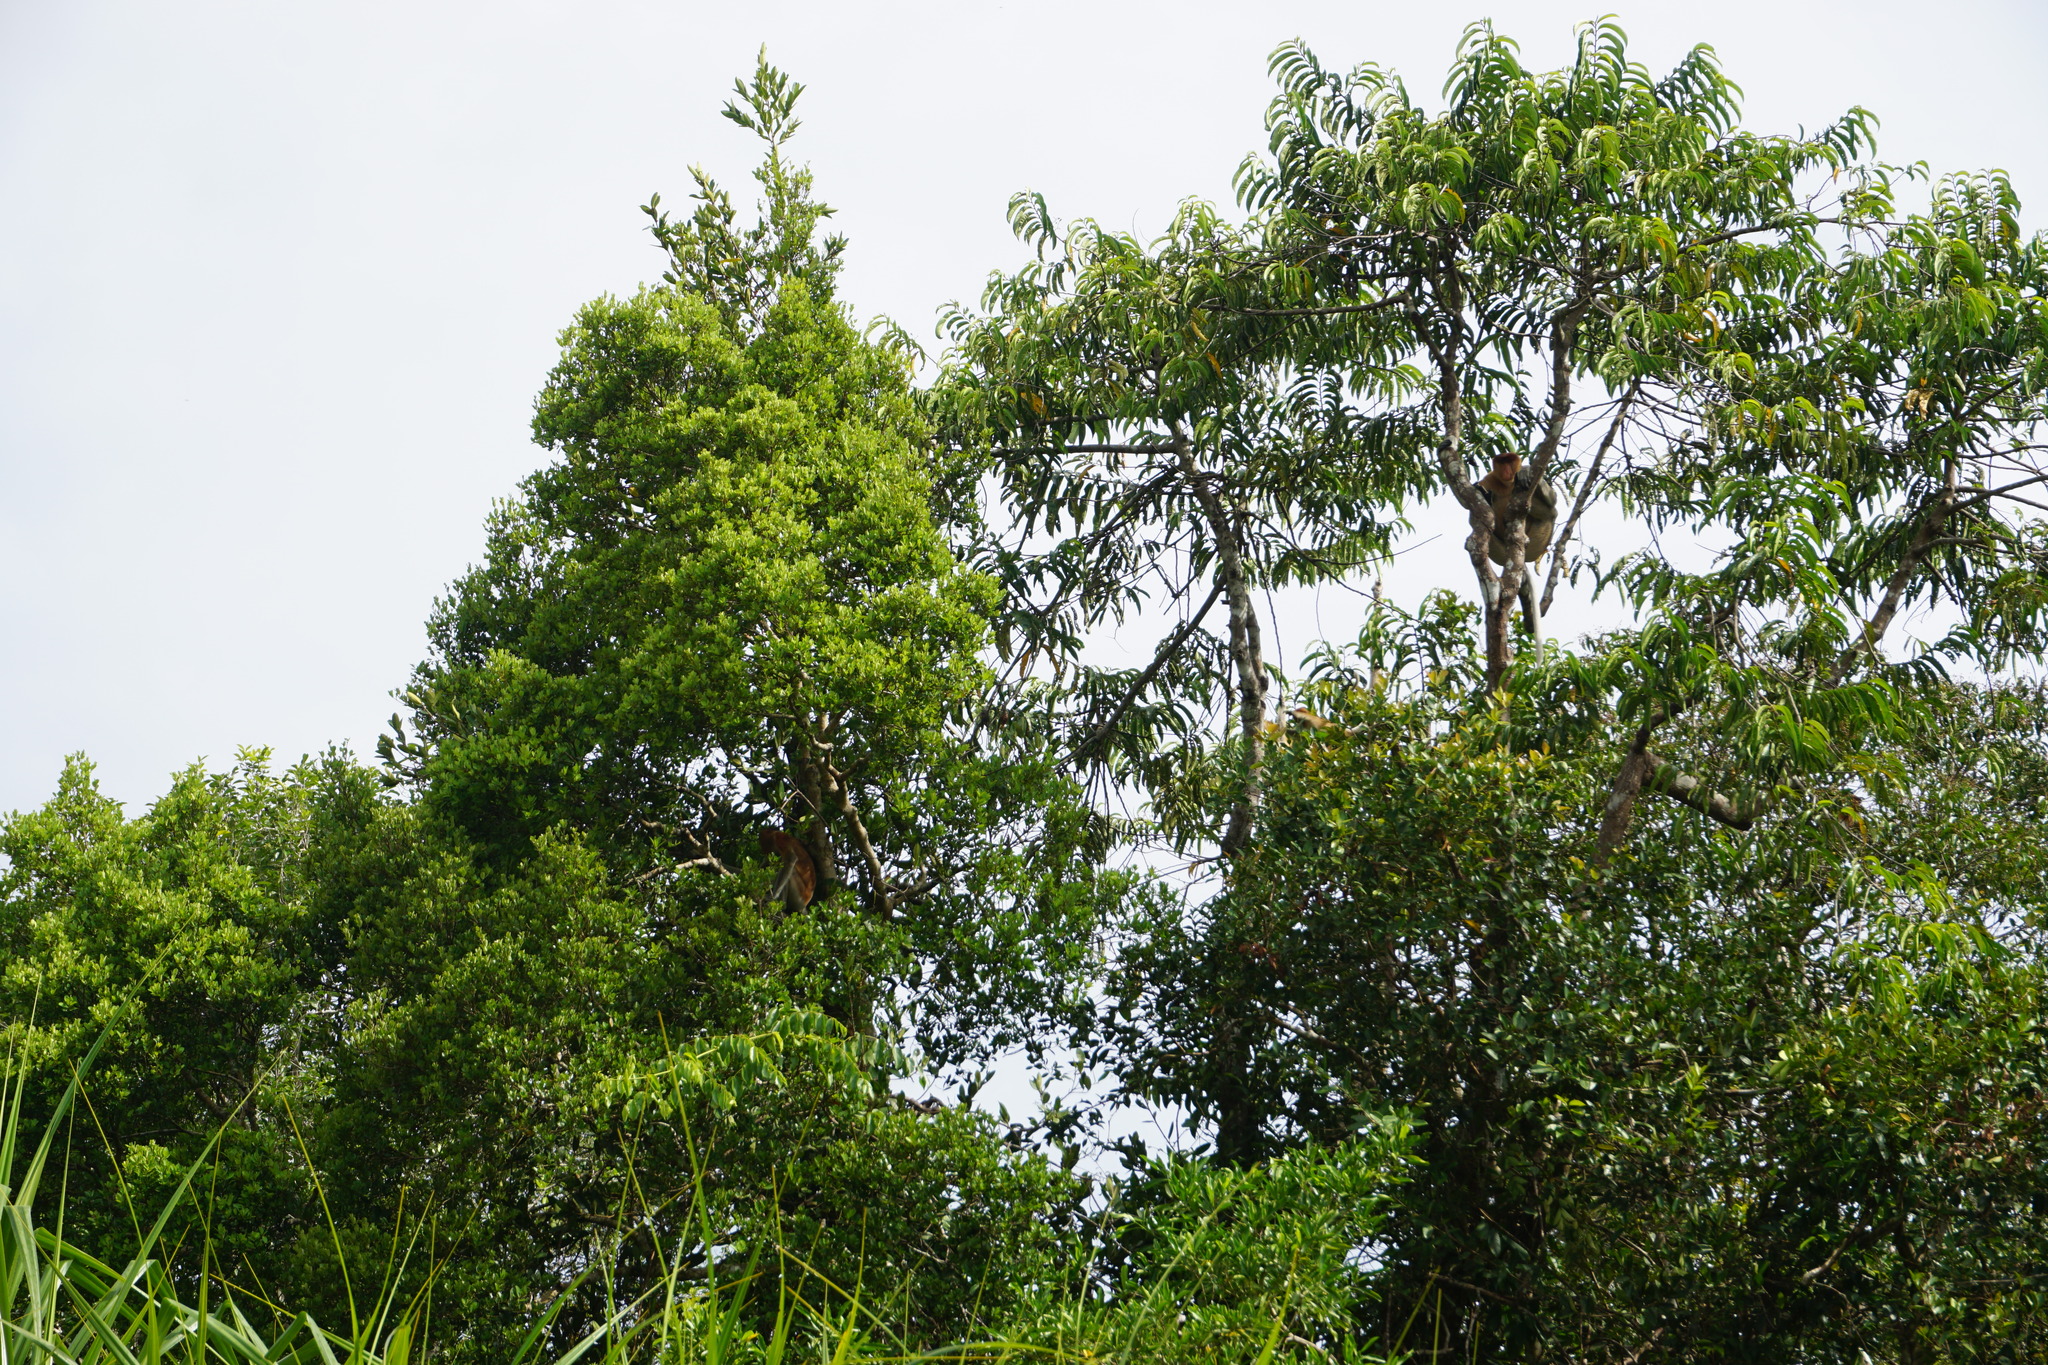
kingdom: Animalia
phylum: Chordata
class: Mammalia
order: Primates
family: Cercopithecidae
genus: Nasalis
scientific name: Nasalis larvatus
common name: Proboscis monkey
